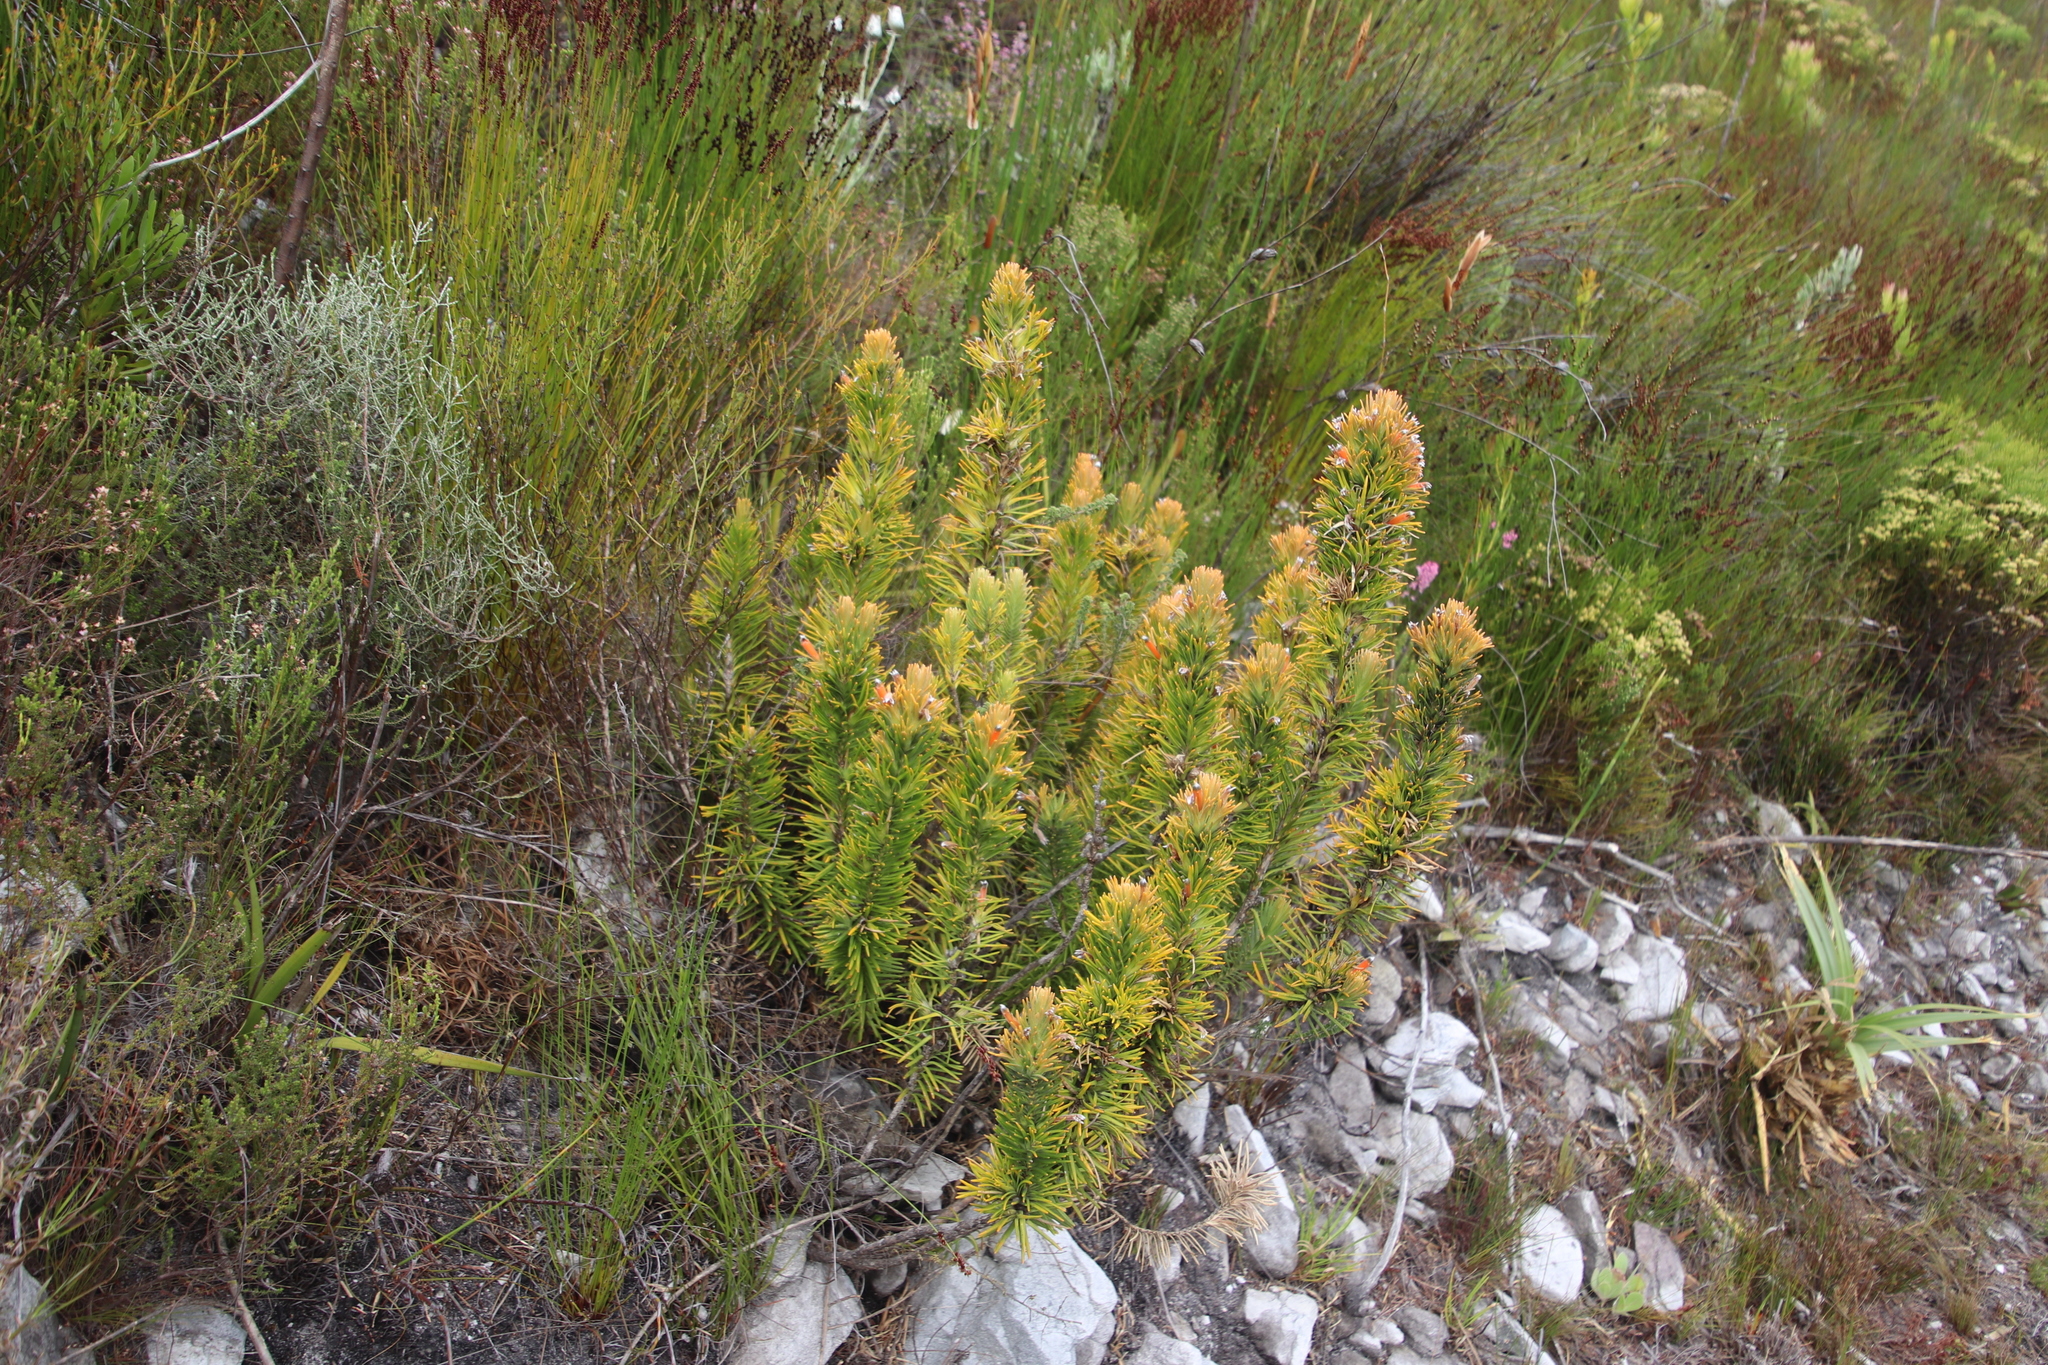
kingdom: Plantae
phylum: Tracheophyta
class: Magnoliopsida
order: Lamiales
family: Stilbaceae
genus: Retzia
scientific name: Retzia capensis
